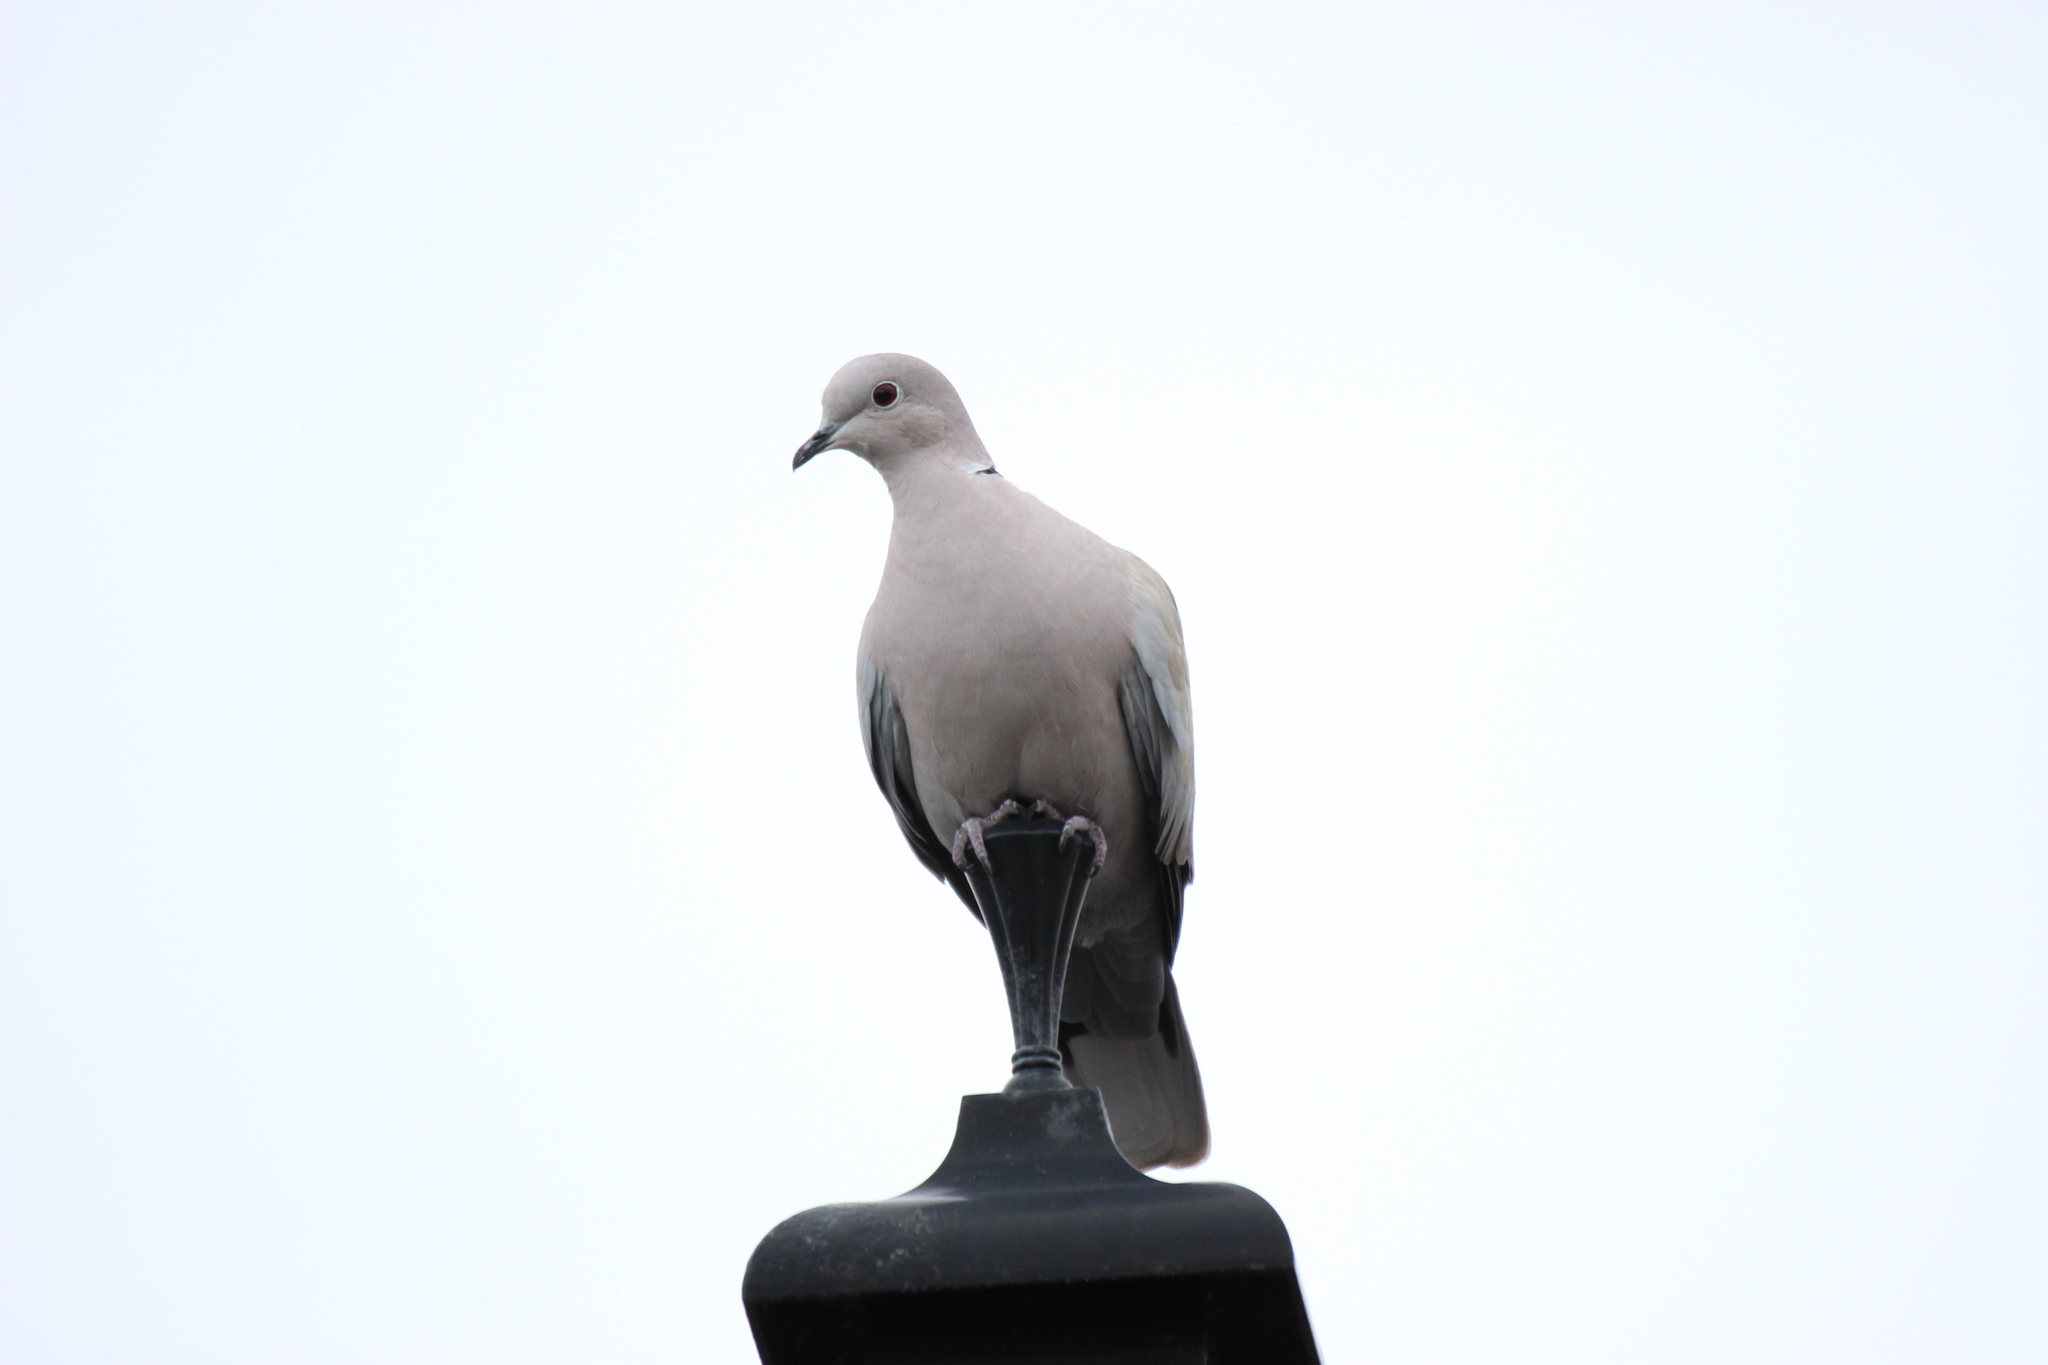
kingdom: Animalia
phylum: Chordata
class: Aves
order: Columbiformes
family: Columbidae
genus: Streptopelia
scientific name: Streptopelia decaocto
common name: Eurasian collared dove
